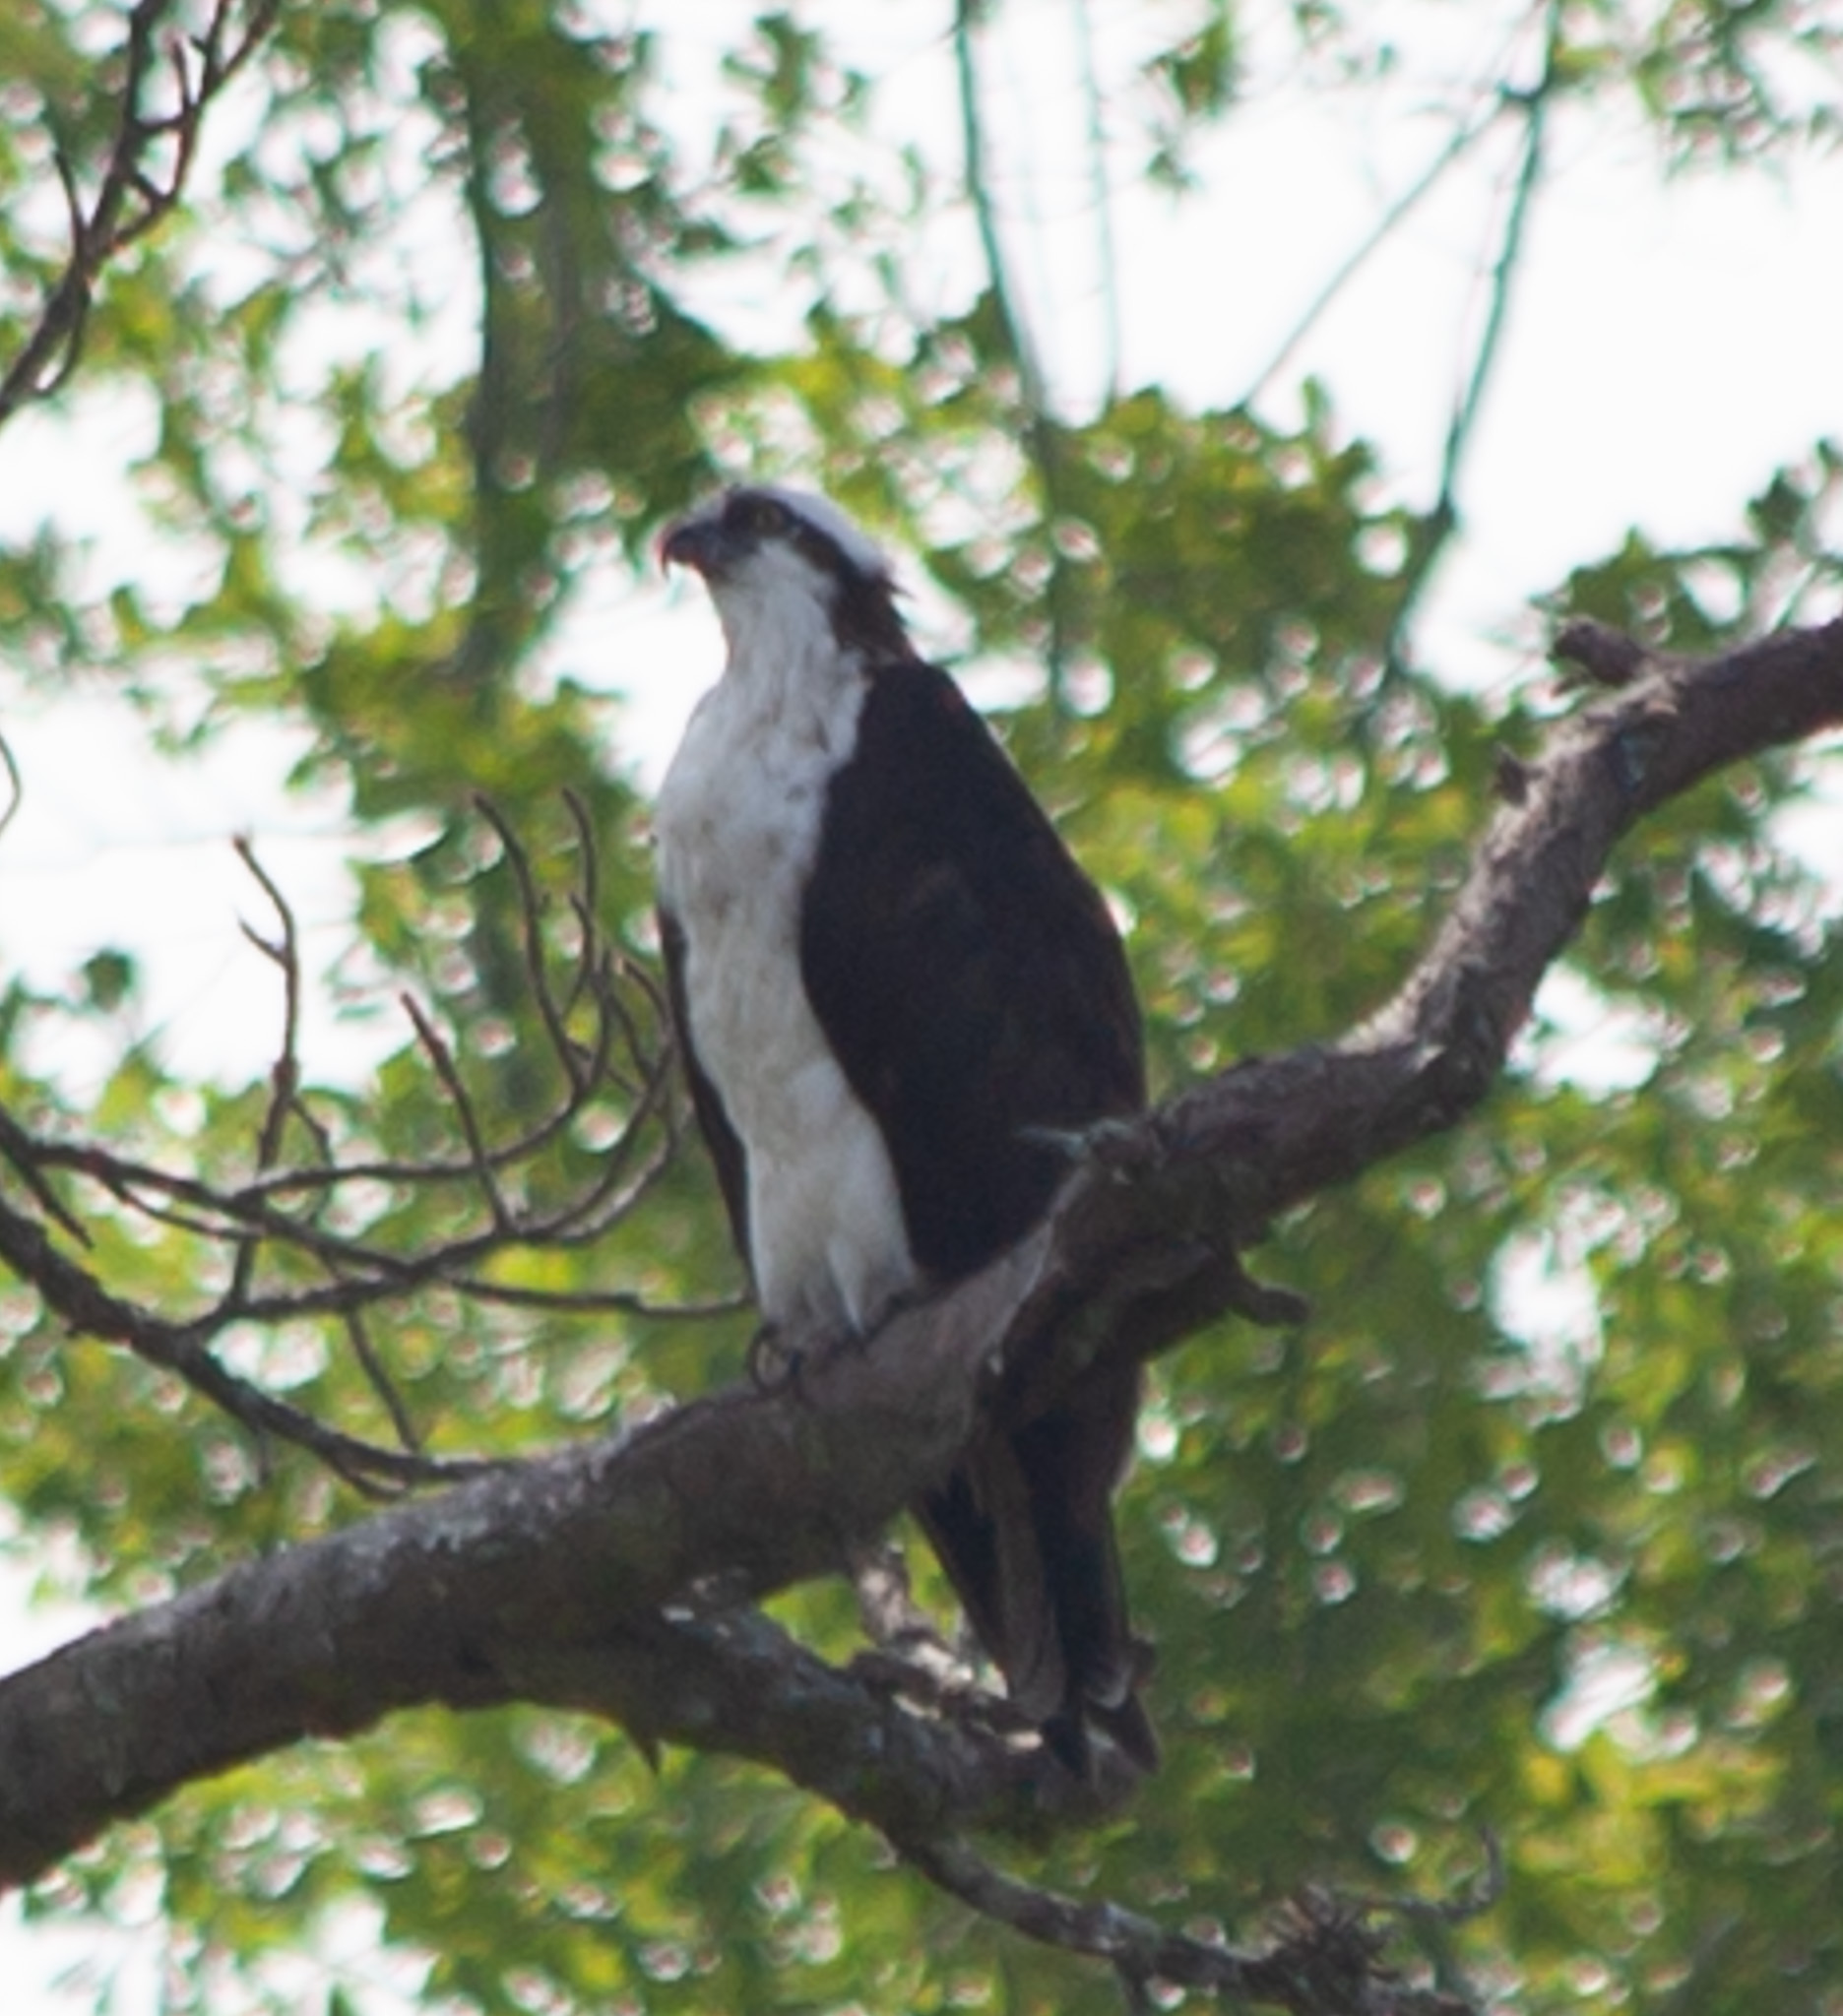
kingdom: Animalia
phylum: Chordata
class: Aves
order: Accipitriformes
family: Pandionidae
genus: Pandion
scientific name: Pandion haliaetus
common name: Osprey
